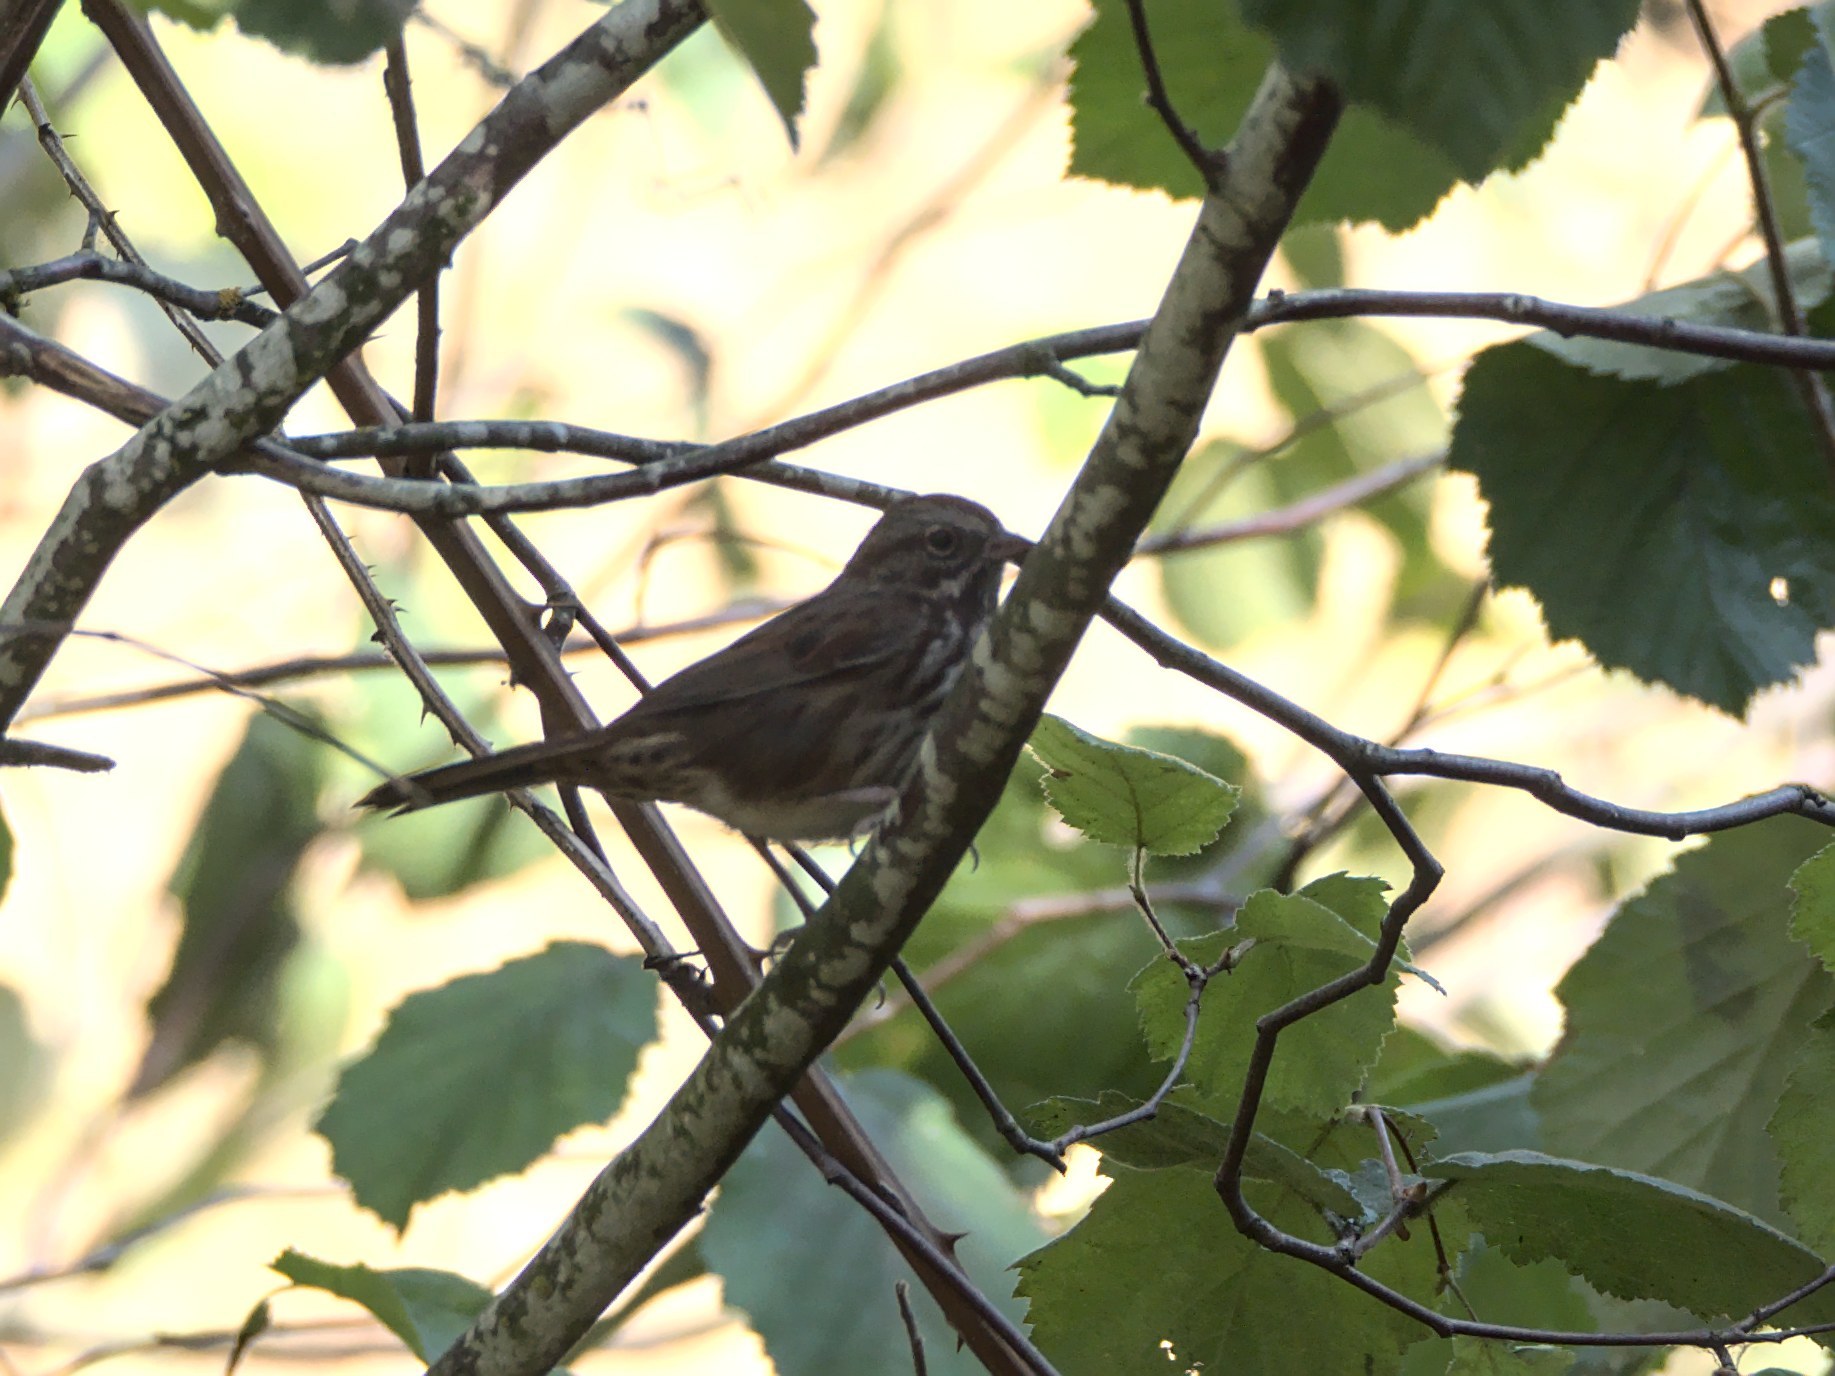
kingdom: Animalia
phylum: Chordata
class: Aves
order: Passeriformes
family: Passerellidae
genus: Melospiza
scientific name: Melospiza melodia
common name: Song sparrow
